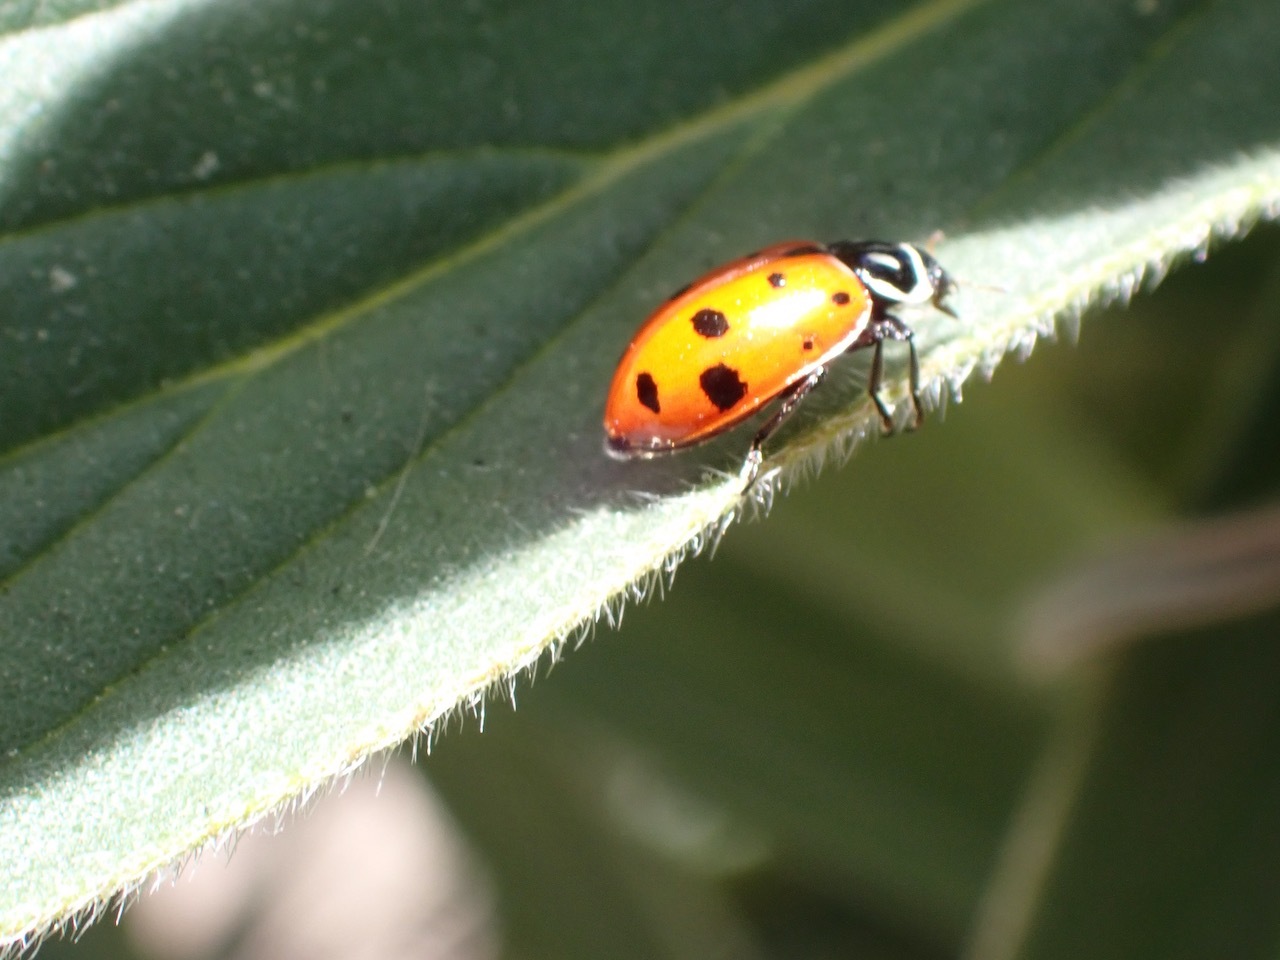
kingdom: Animalia
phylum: Arthropoda
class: Insecta
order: Coleoptera
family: Coccinellidae
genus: Hippodamia
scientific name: Hippodamia convergens
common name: Convergent lady beetle
